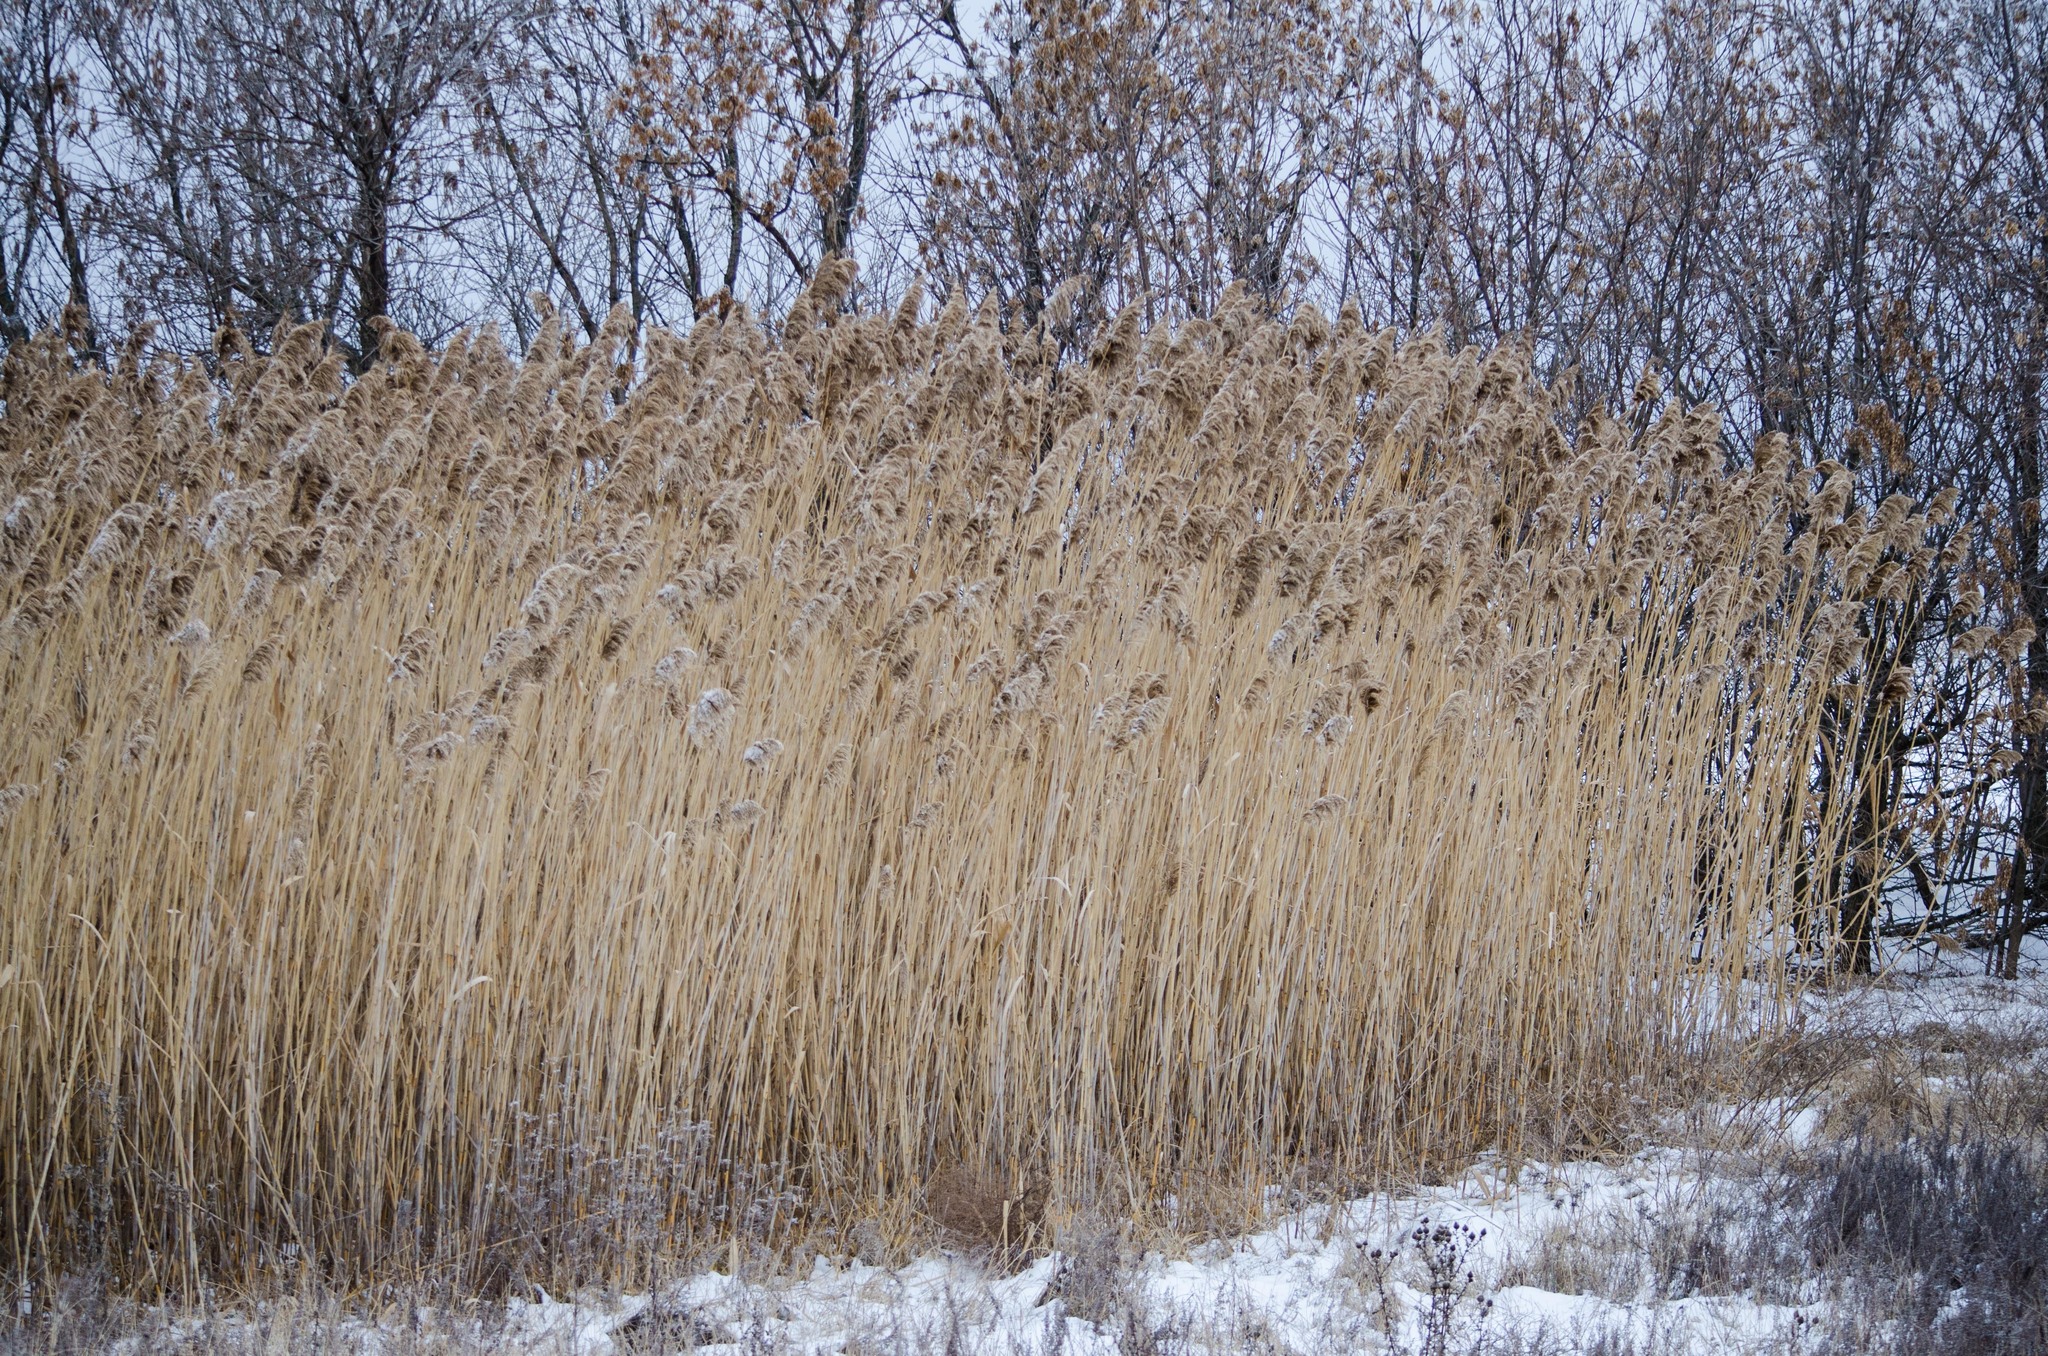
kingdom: Plantae
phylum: Tracheophyta
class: Liliopsida
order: Poales
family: Poaceae
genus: Phragmites
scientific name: Phragmites australis
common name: Common reed
